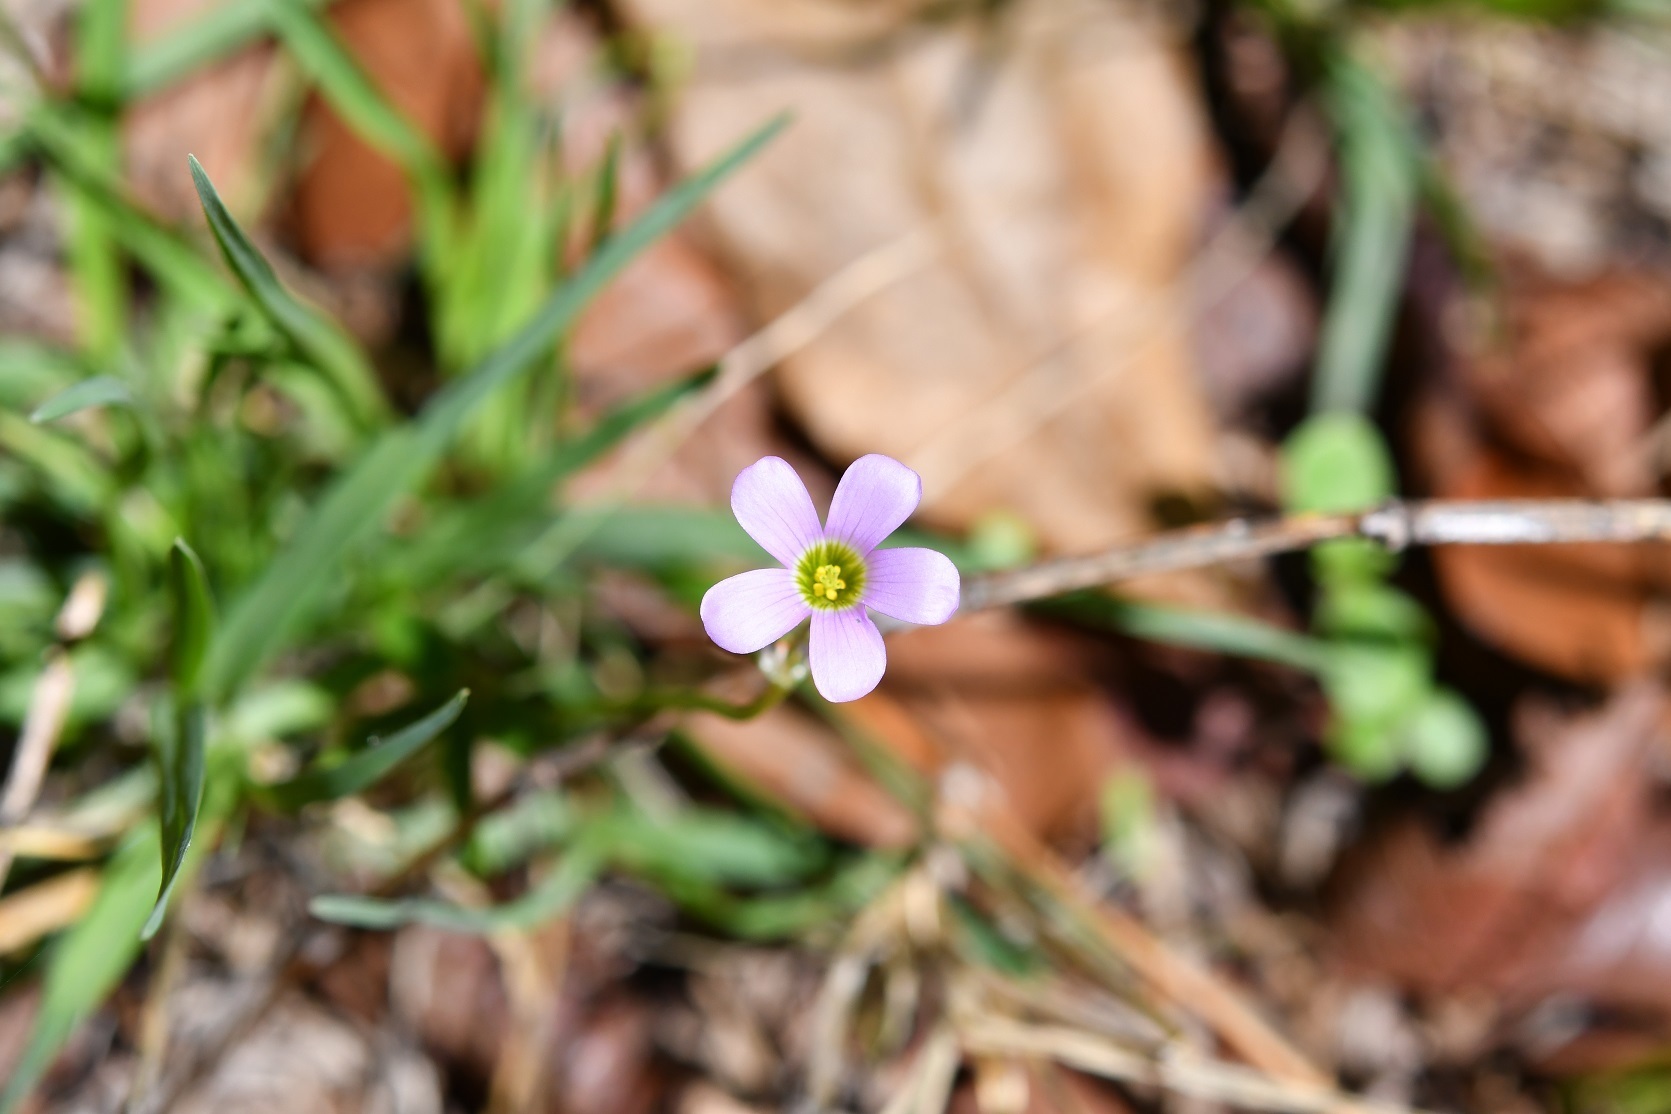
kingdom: Plantae
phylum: Tracheophyta
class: Magnoliopsida
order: Oxalidales
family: Oxalidaceae
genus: Oxalis
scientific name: Oxalis alpina
